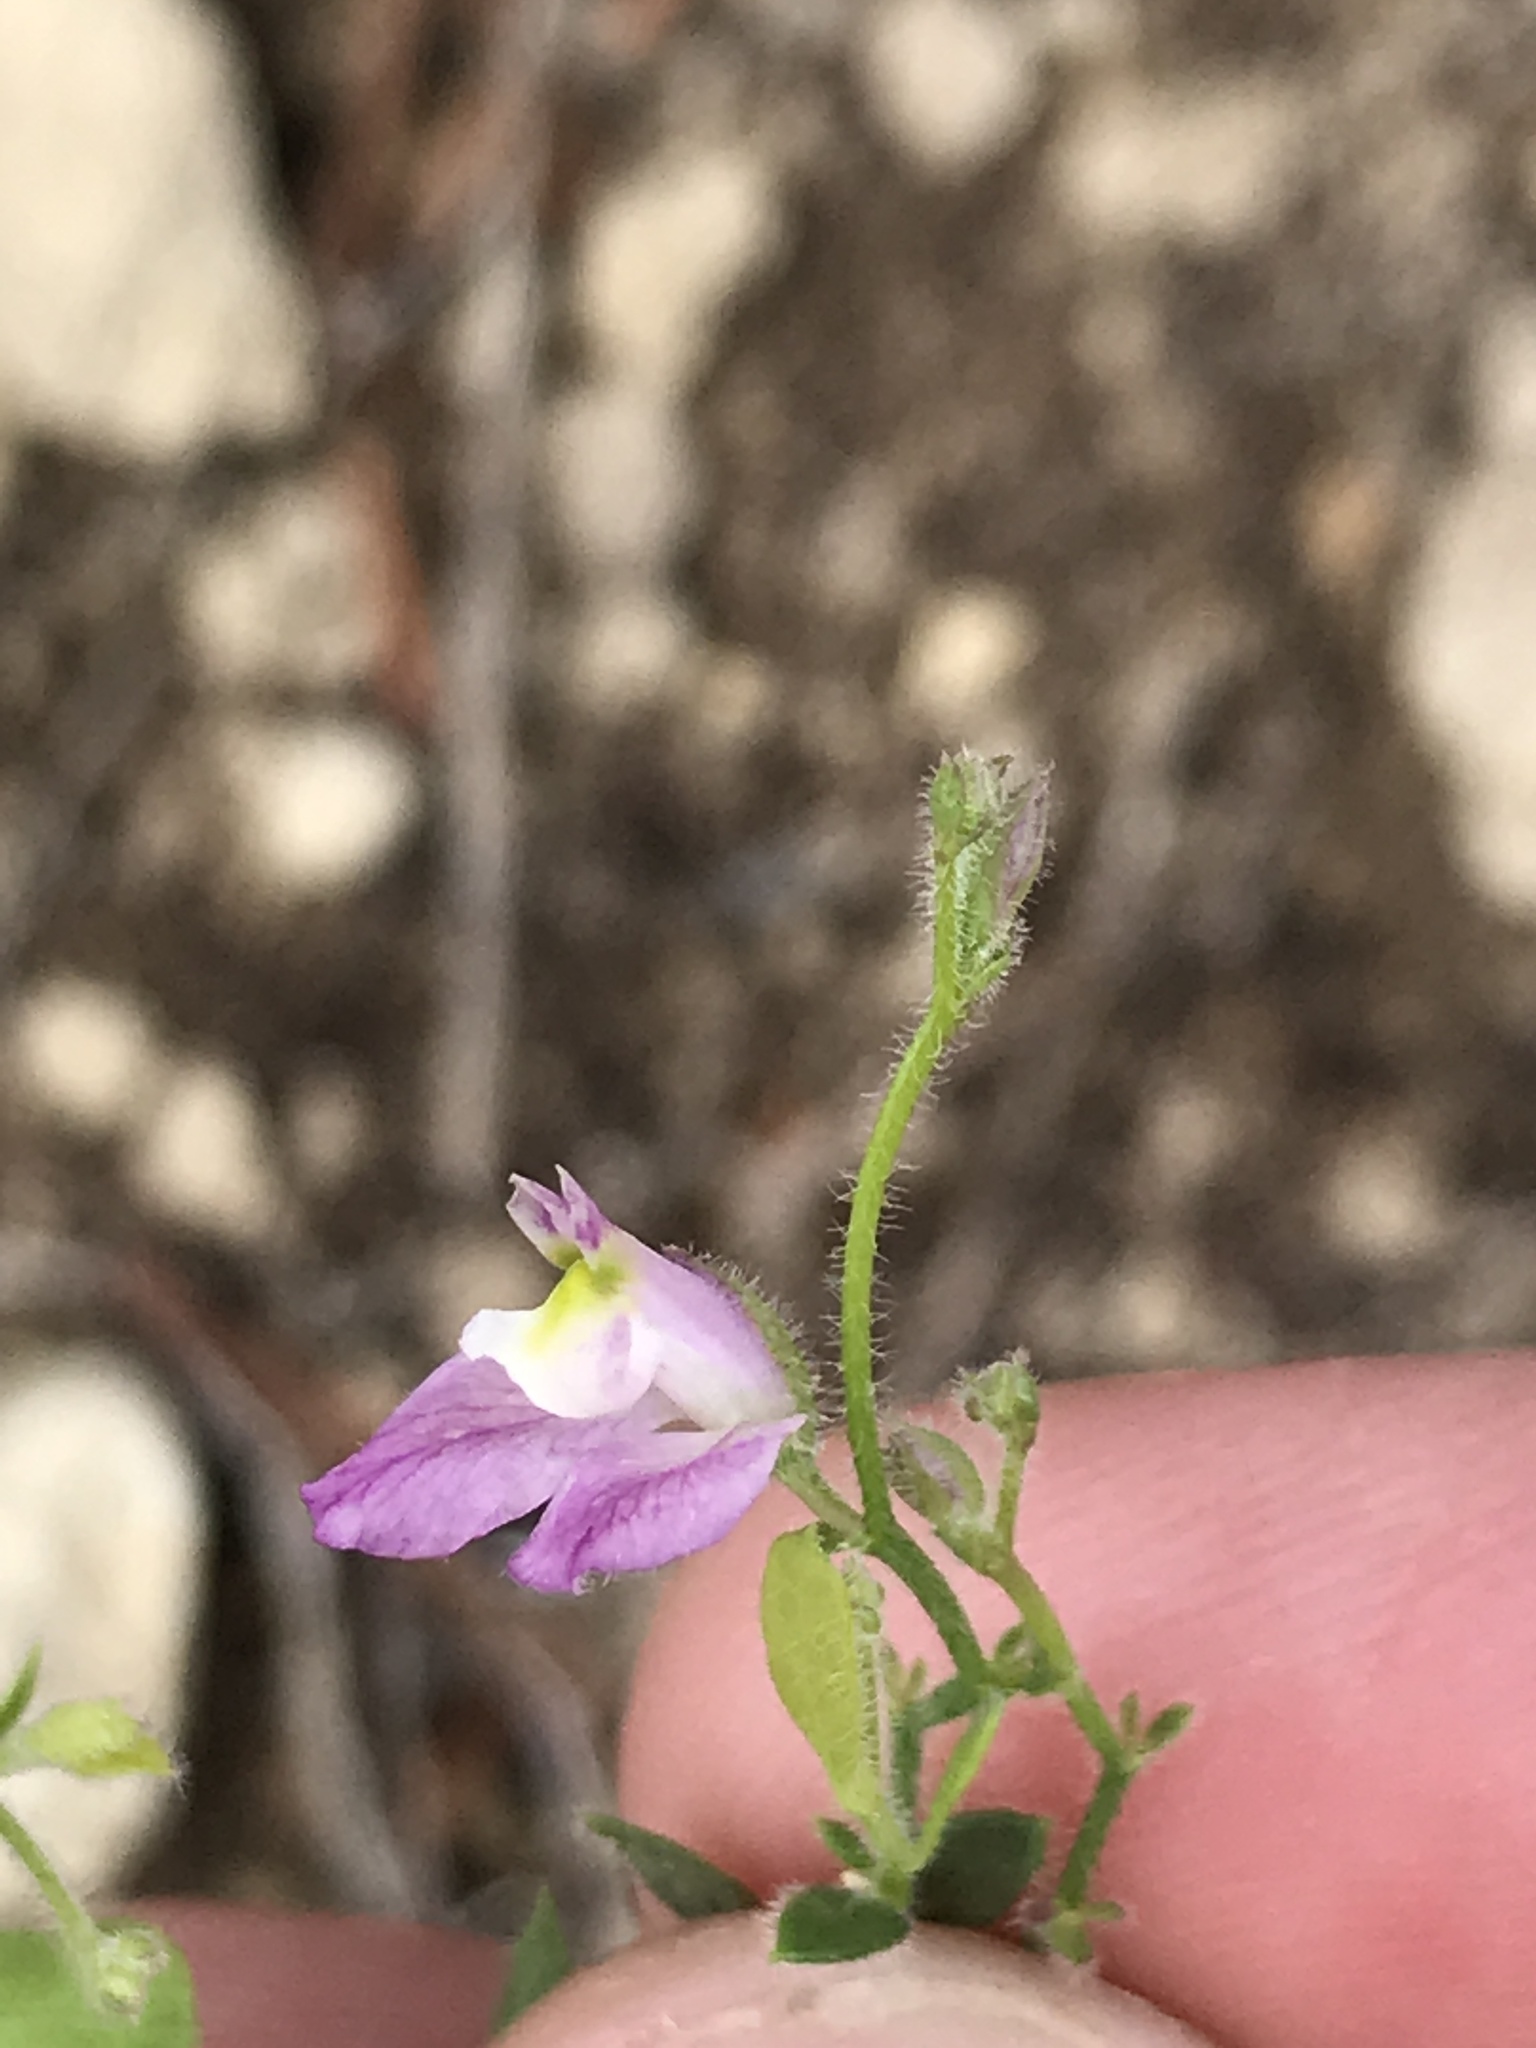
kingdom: Plantae
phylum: Tracheophyta
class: Magnoliopsida
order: Fabales
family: Polygalaceae
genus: Rhinotropis
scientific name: Rhinotropis lindheimeri
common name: Shrubby milkwort
